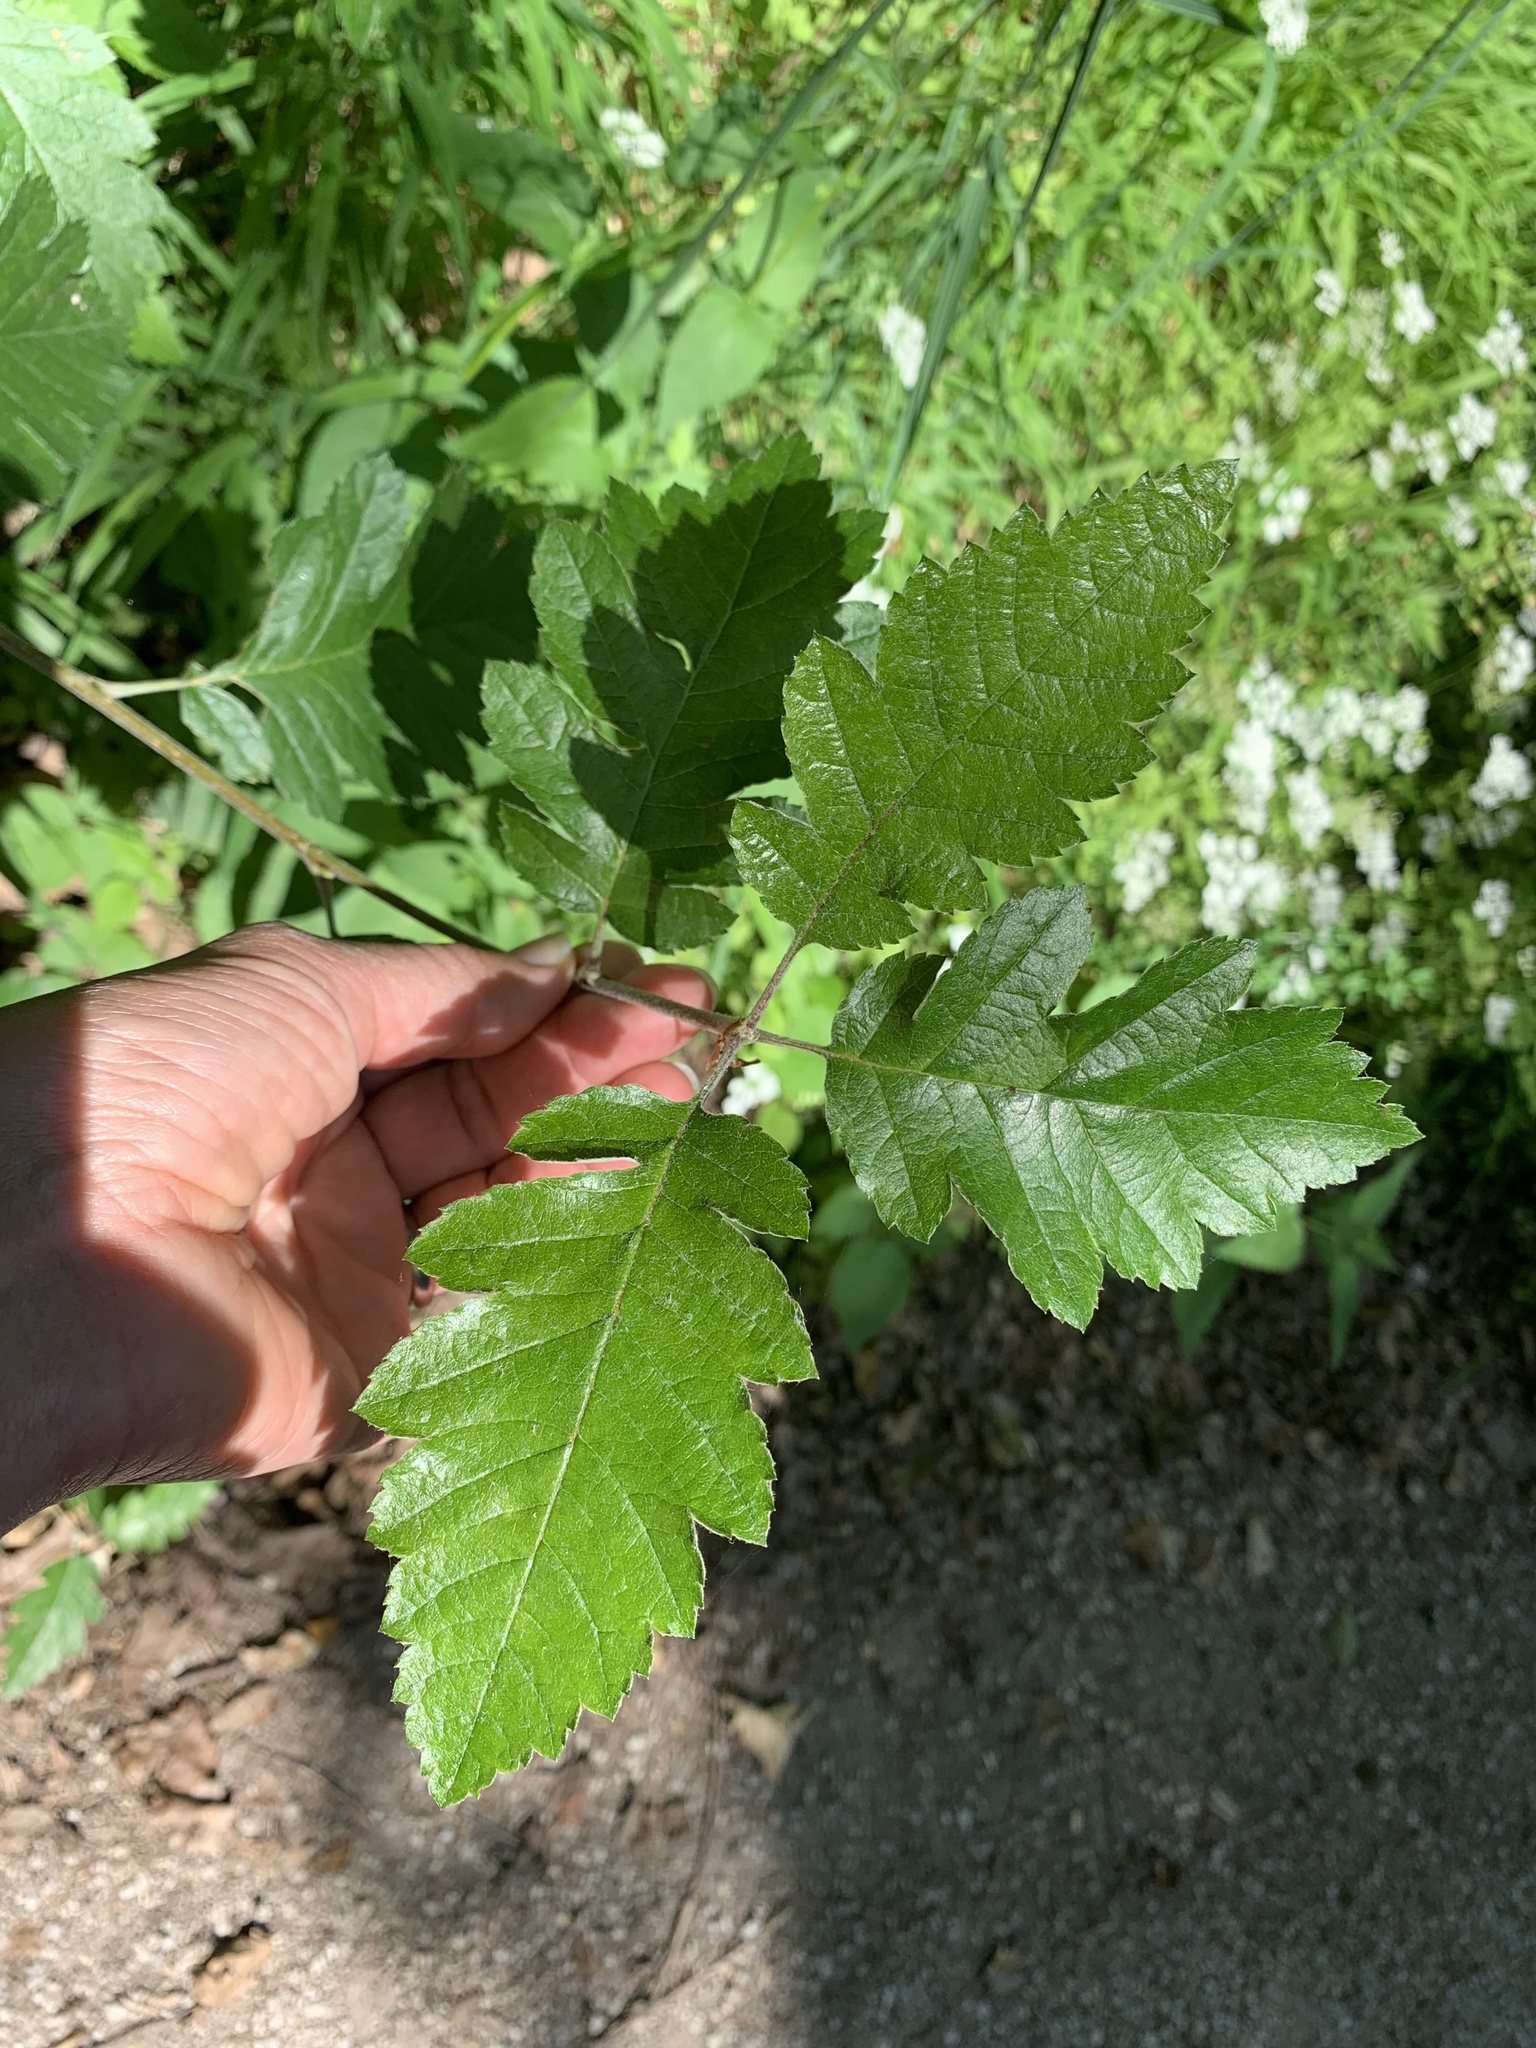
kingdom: Plantae
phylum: Tracheophyta
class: Magnoliopsida
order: Rosales
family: Rosaceae
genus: Scandosorbus
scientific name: Scandosorbus intermedia
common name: Swedish whitebeam
